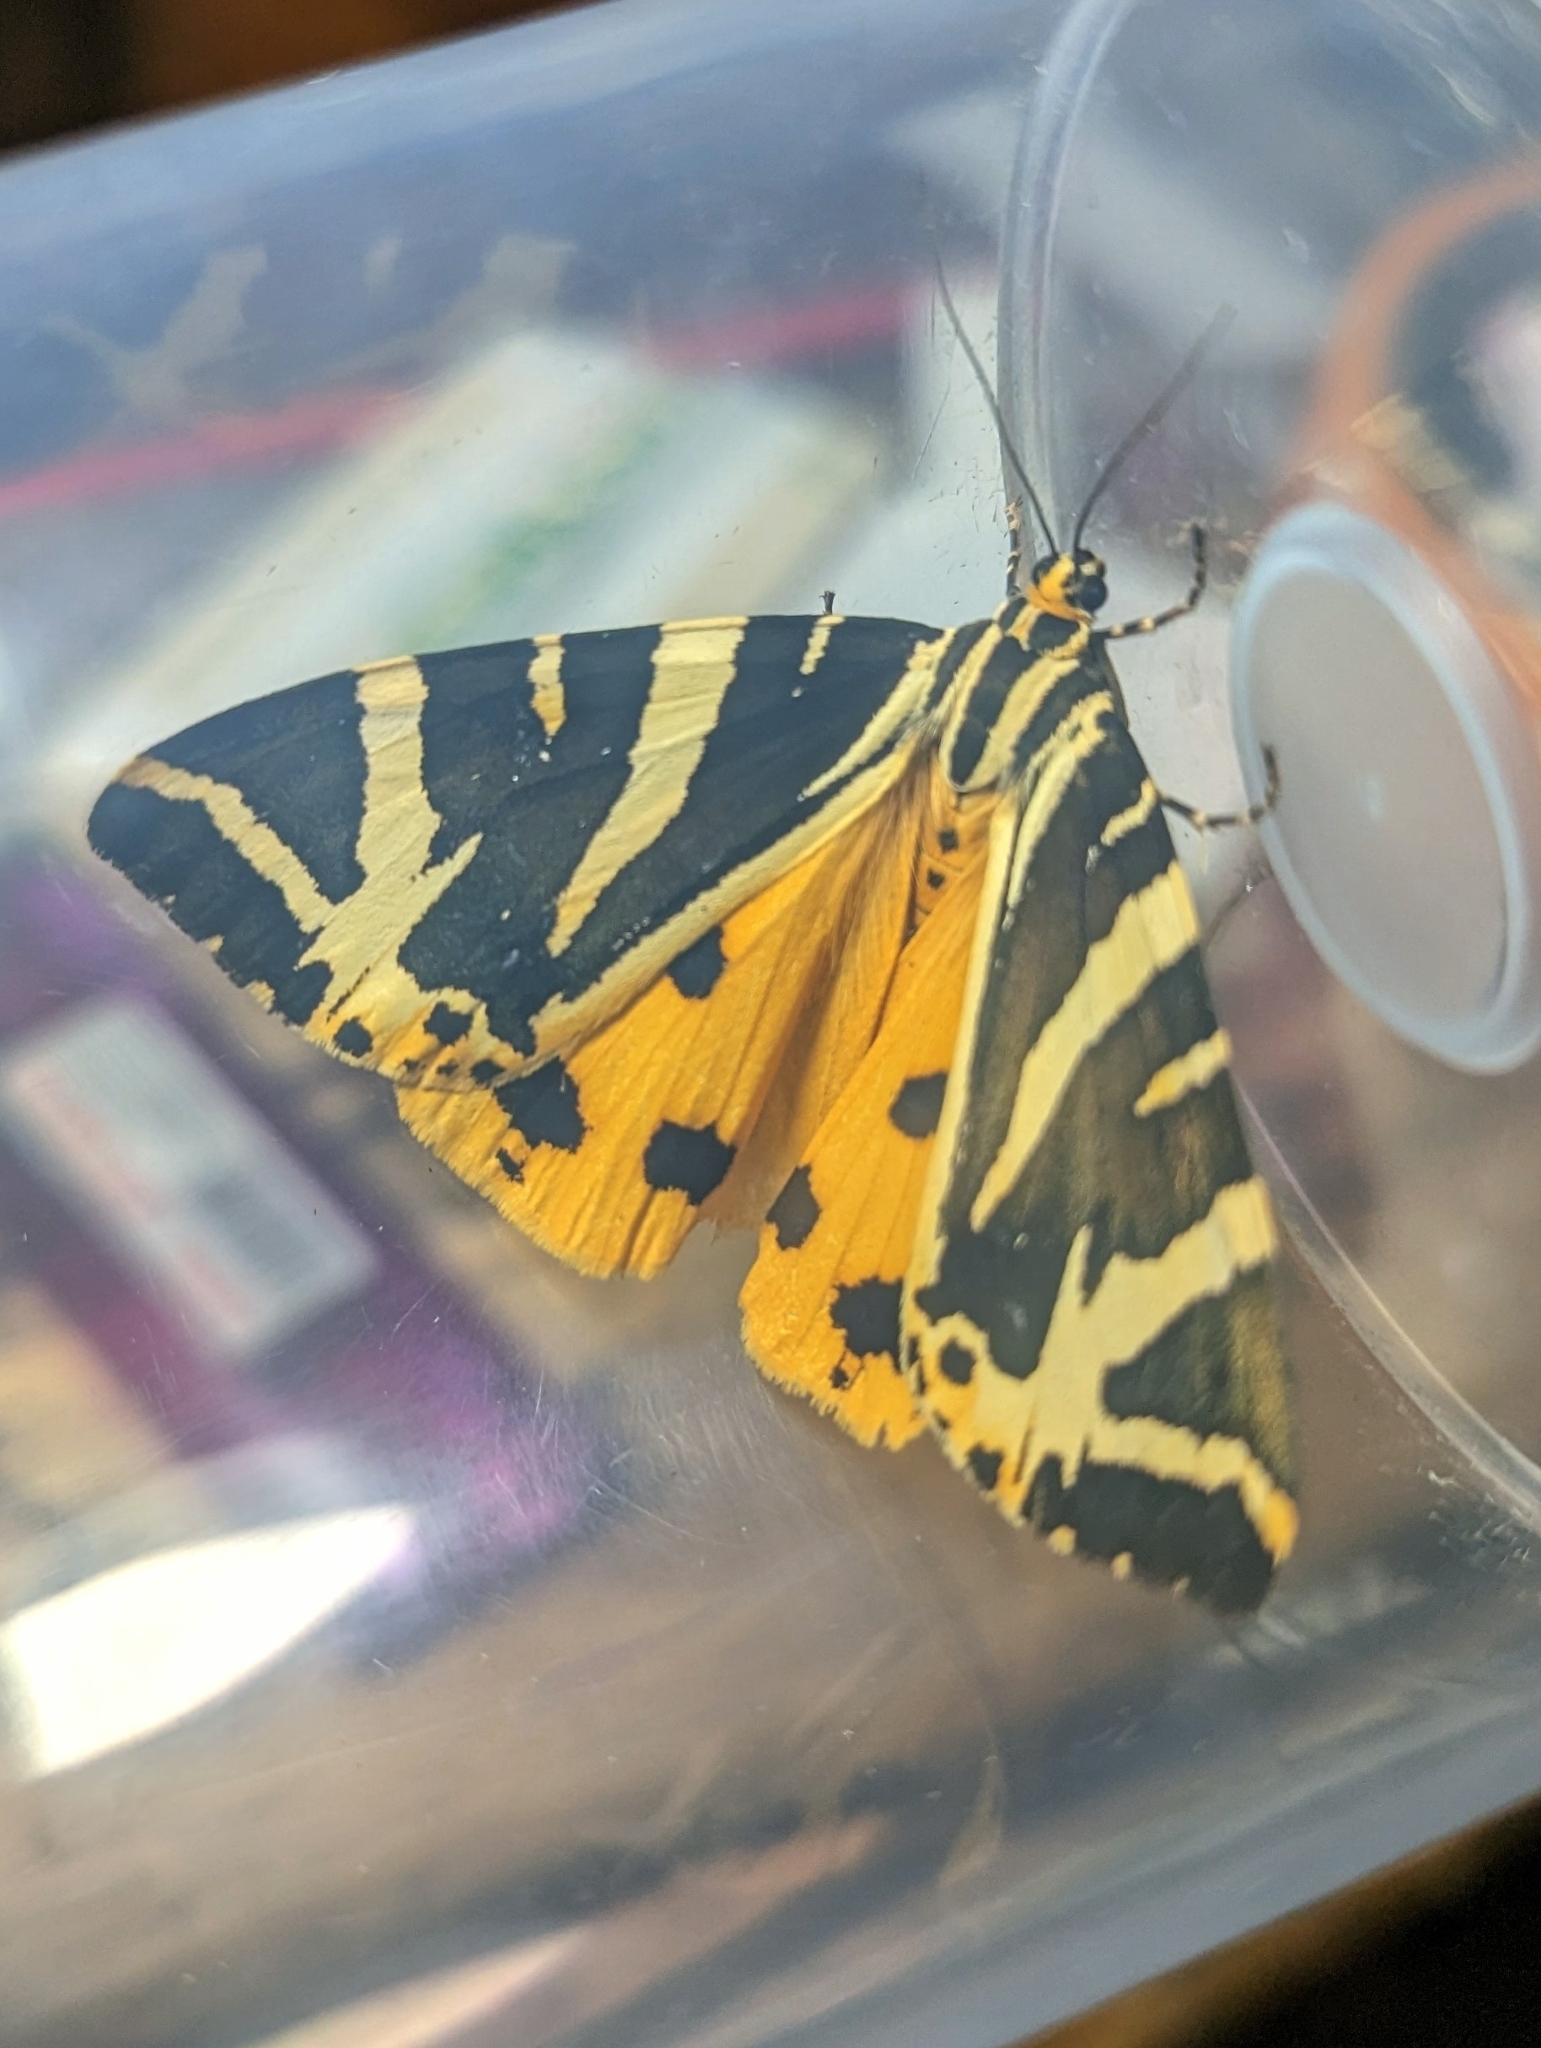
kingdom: Animalia
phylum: Arthropoda
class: Insecta
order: Lepidoptera
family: Erebidae
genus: Euplagia
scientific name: Euplagia quadripunctaria
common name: Jersey tiger
